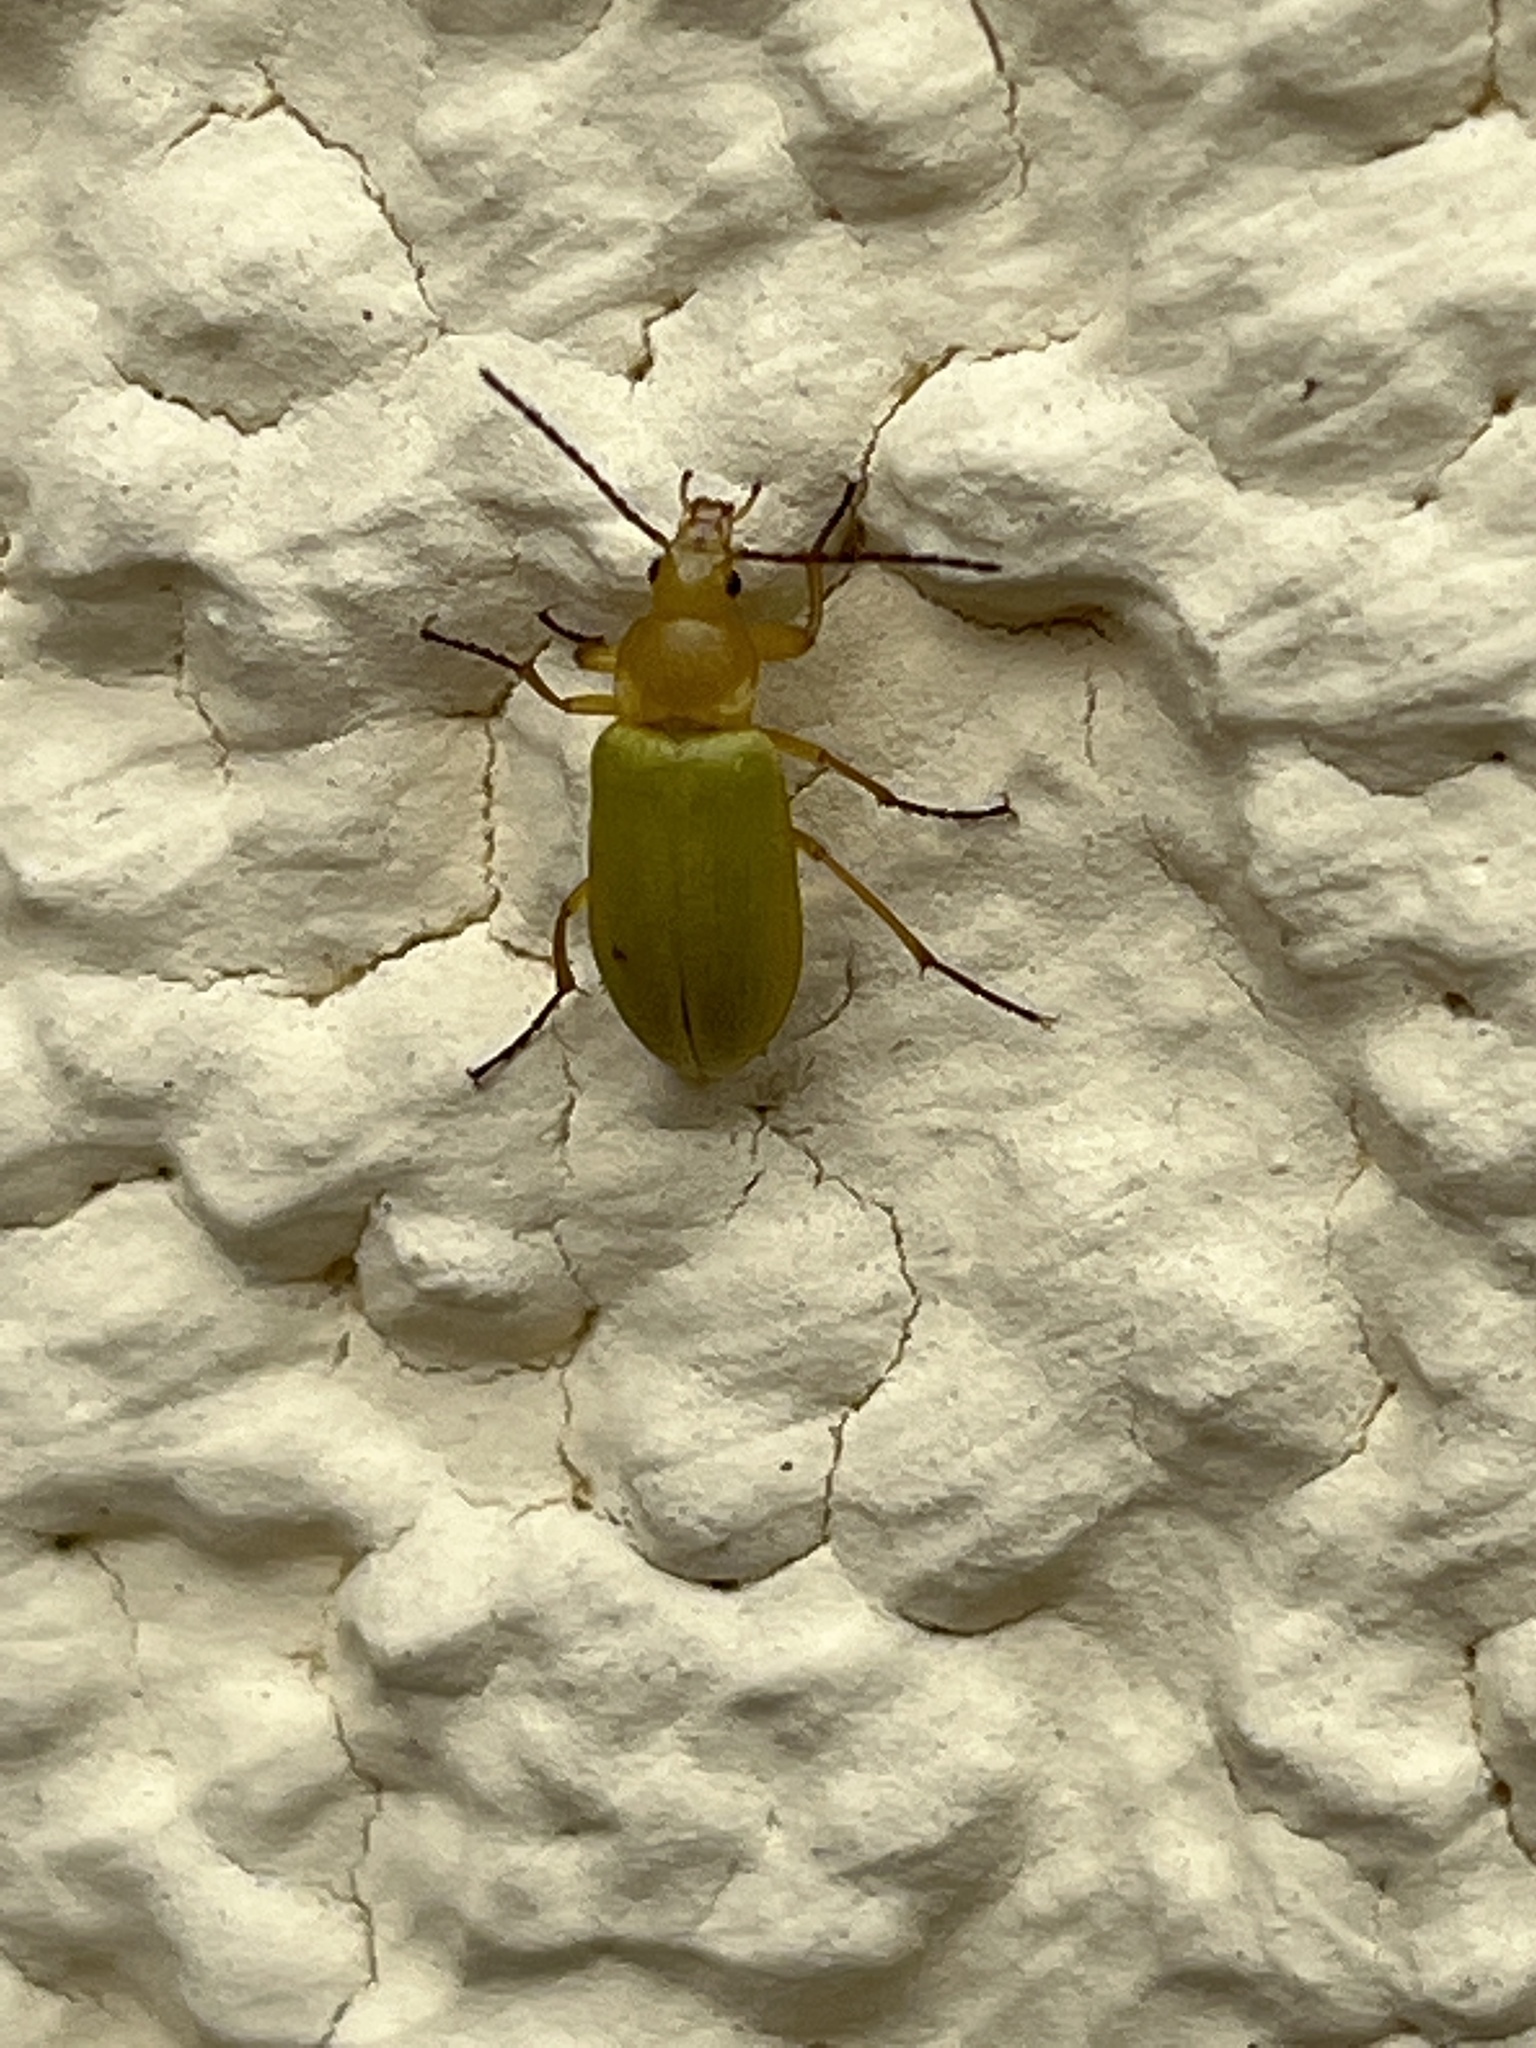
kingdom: Animalia
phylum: Arthropoda
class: Insecta
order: Coleoptera
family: Tenebrionidae
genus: Cteniopus
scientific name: Cteniopus sulphureus
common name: Sulphur beetle
